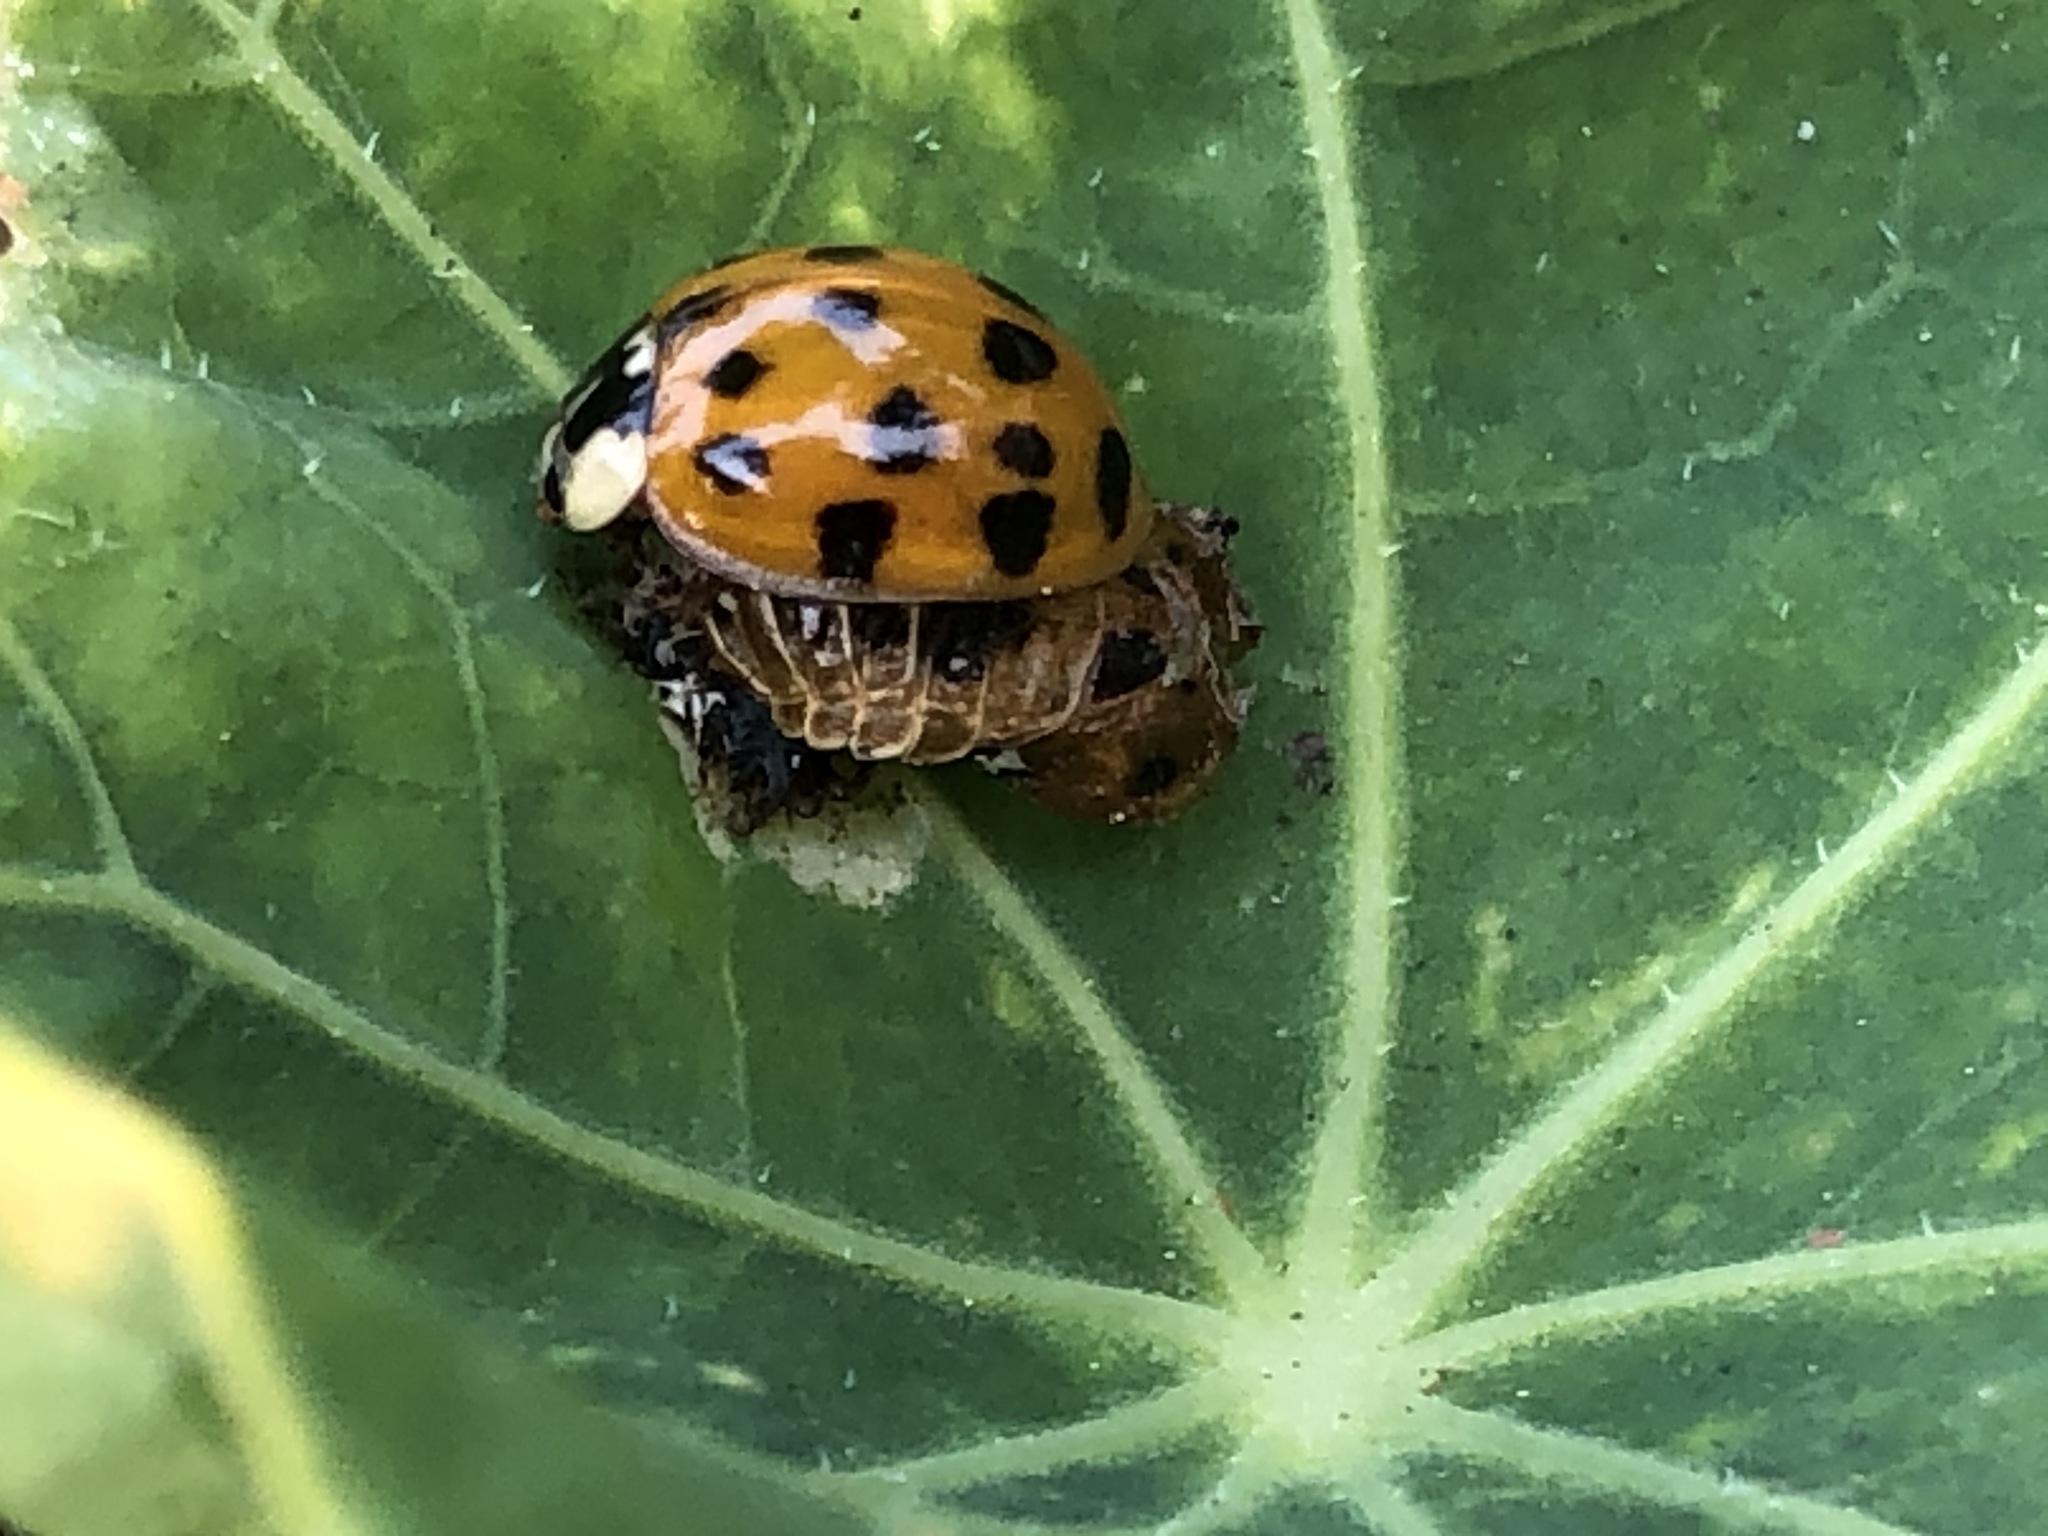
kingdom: Animalia
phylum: Arthropoda
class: Insecta
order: Coleoptera
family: Coccinellidae
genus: Harmonia
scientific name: Harmonia axyridis
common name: Harlequin ladybird
